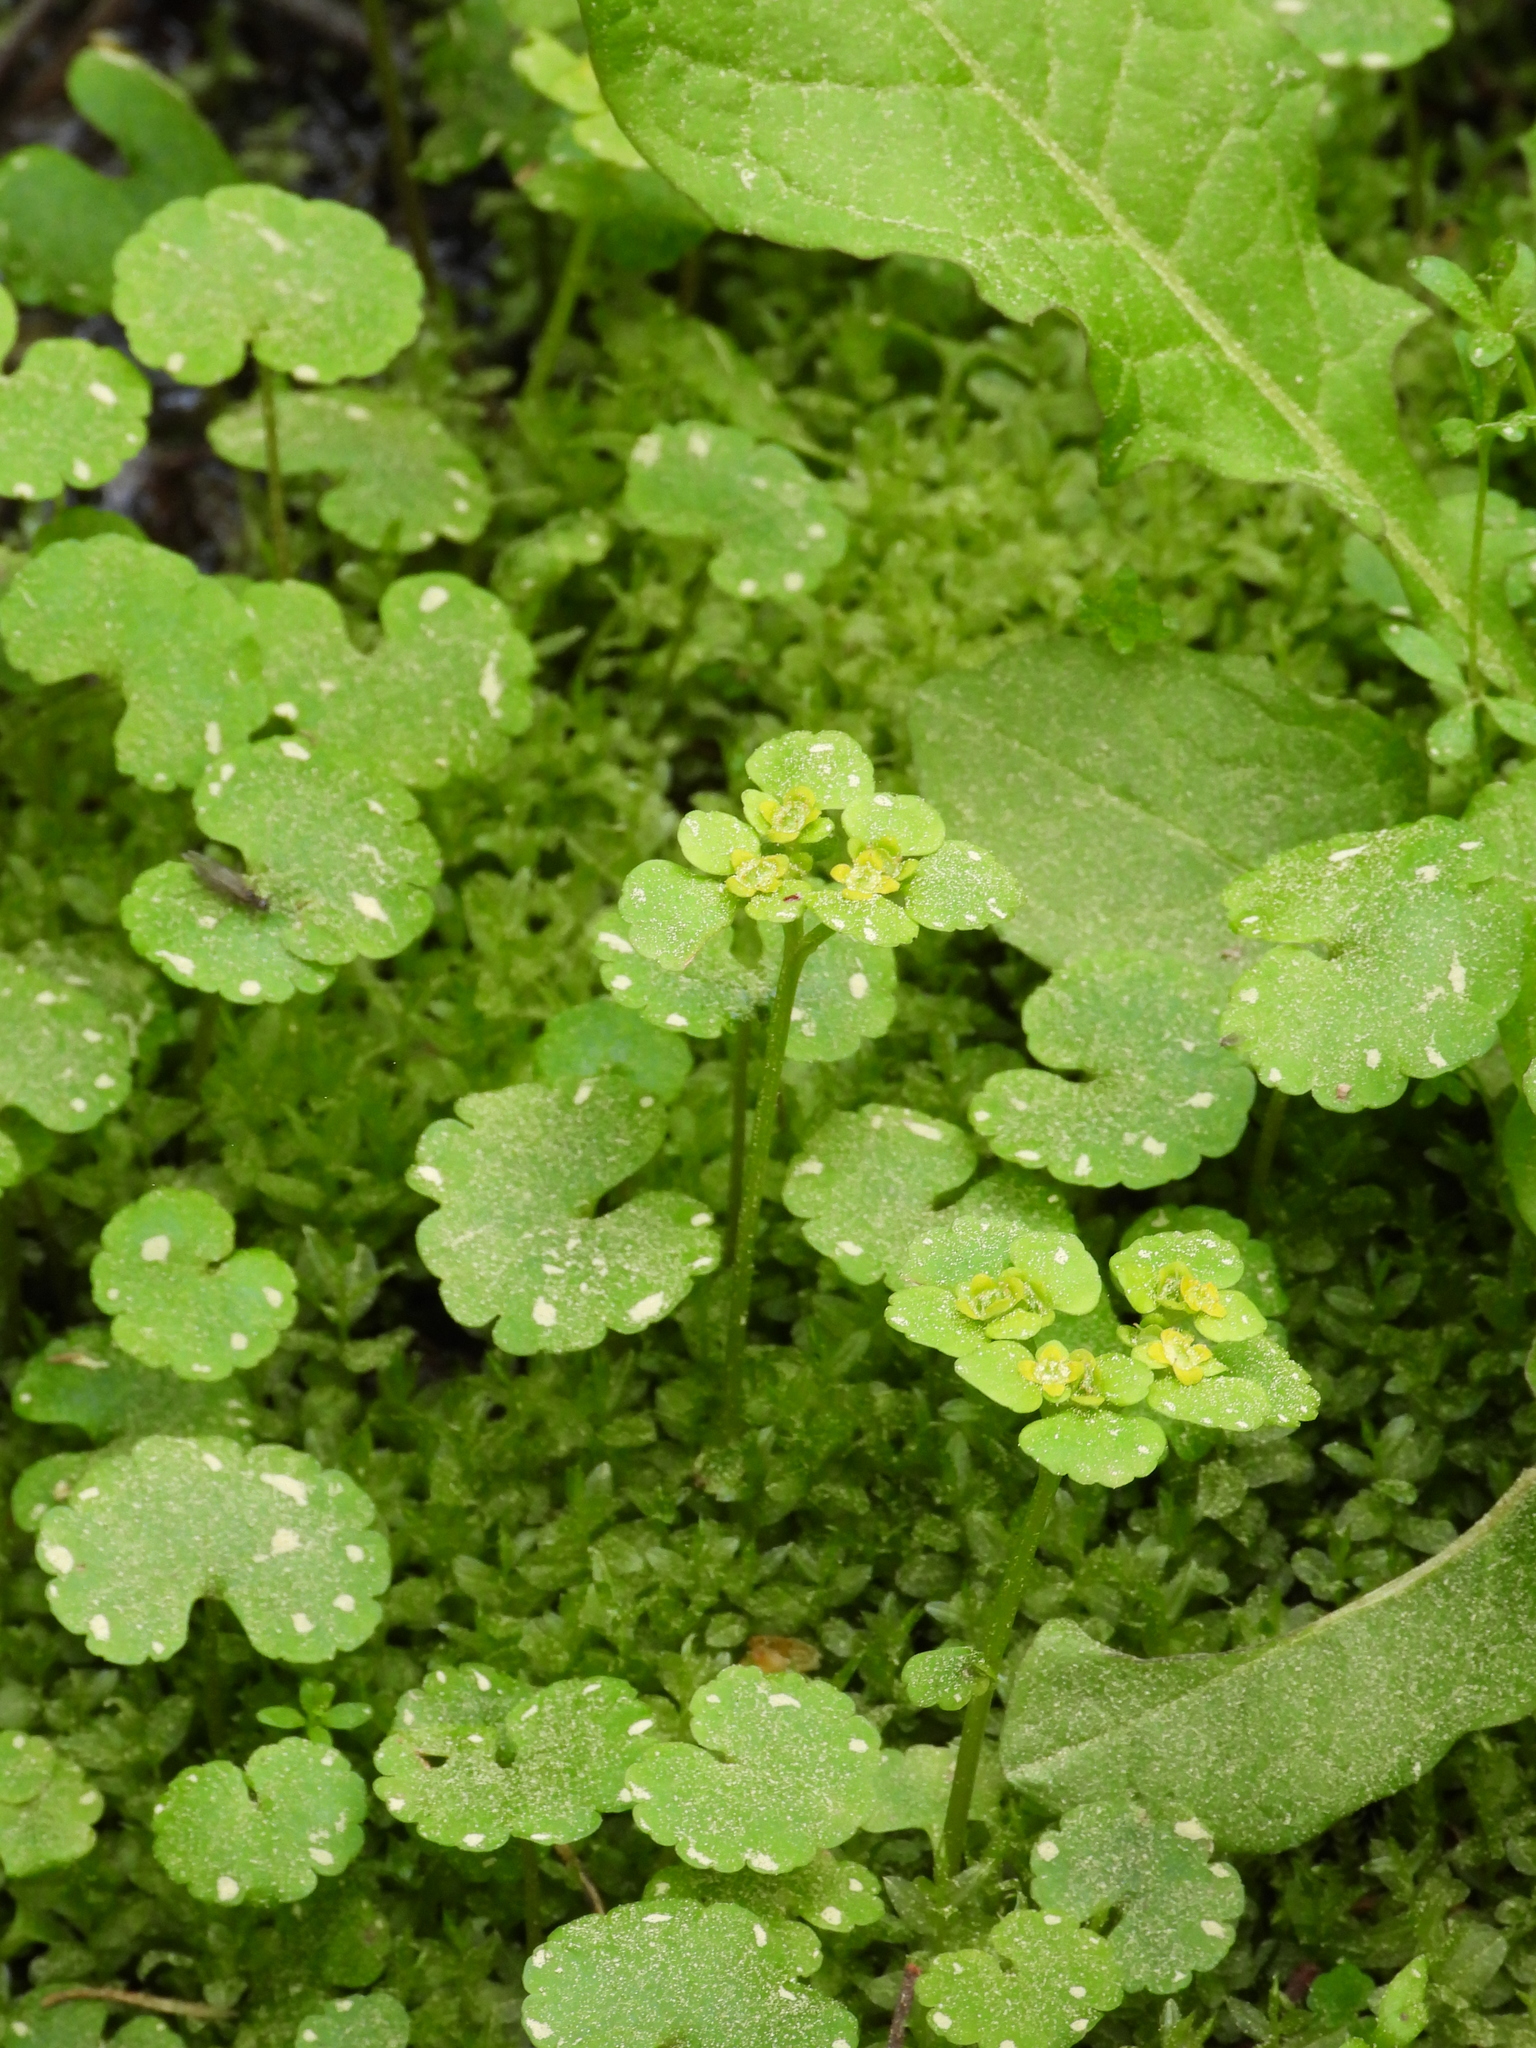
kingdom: Plantae
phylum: Tracheophyta
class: Magnoliopsida
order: Saxifragales
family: Saxifragaceae
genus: Chrysosplenium
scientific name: Chrysosplenium alternifolium
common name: Alternate-leaved golden-saxifrage
